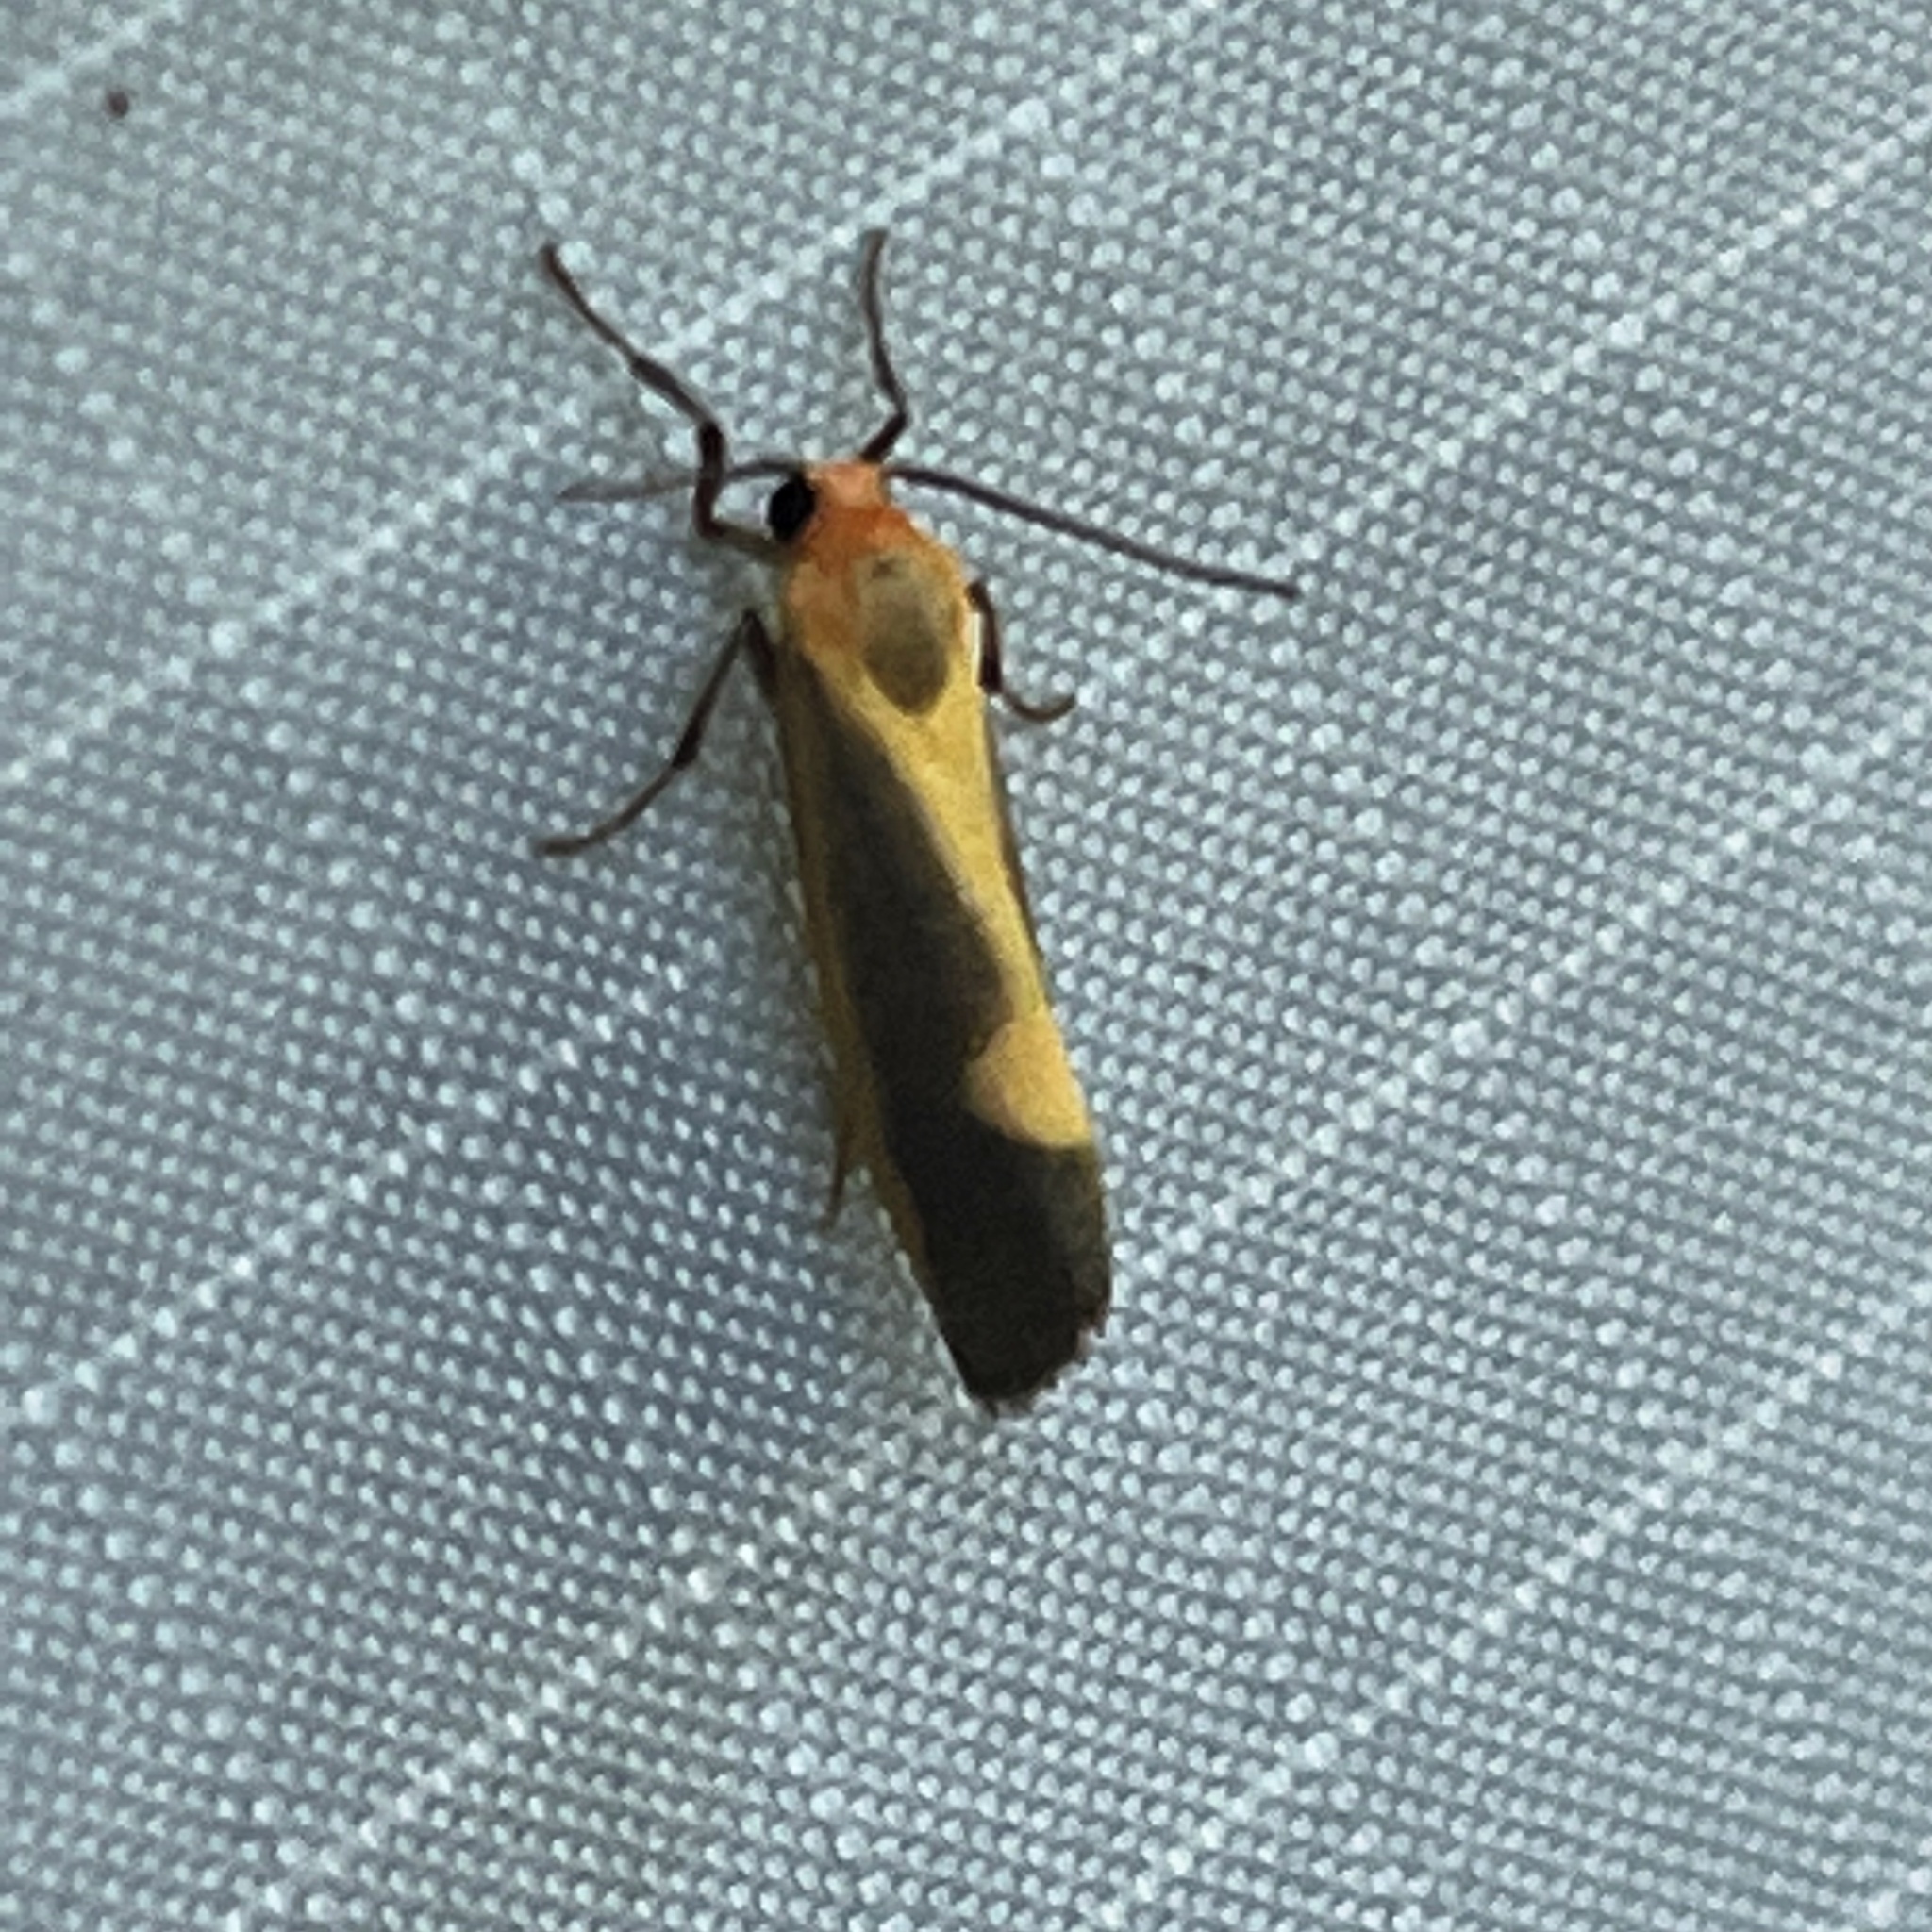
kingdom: Animalia
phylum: Arthropoda
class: Insecta
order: Lepidoptera
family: Erebidae
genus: Cisthene
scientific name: Cisthene plumbea
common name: Lead colored lichen moth
